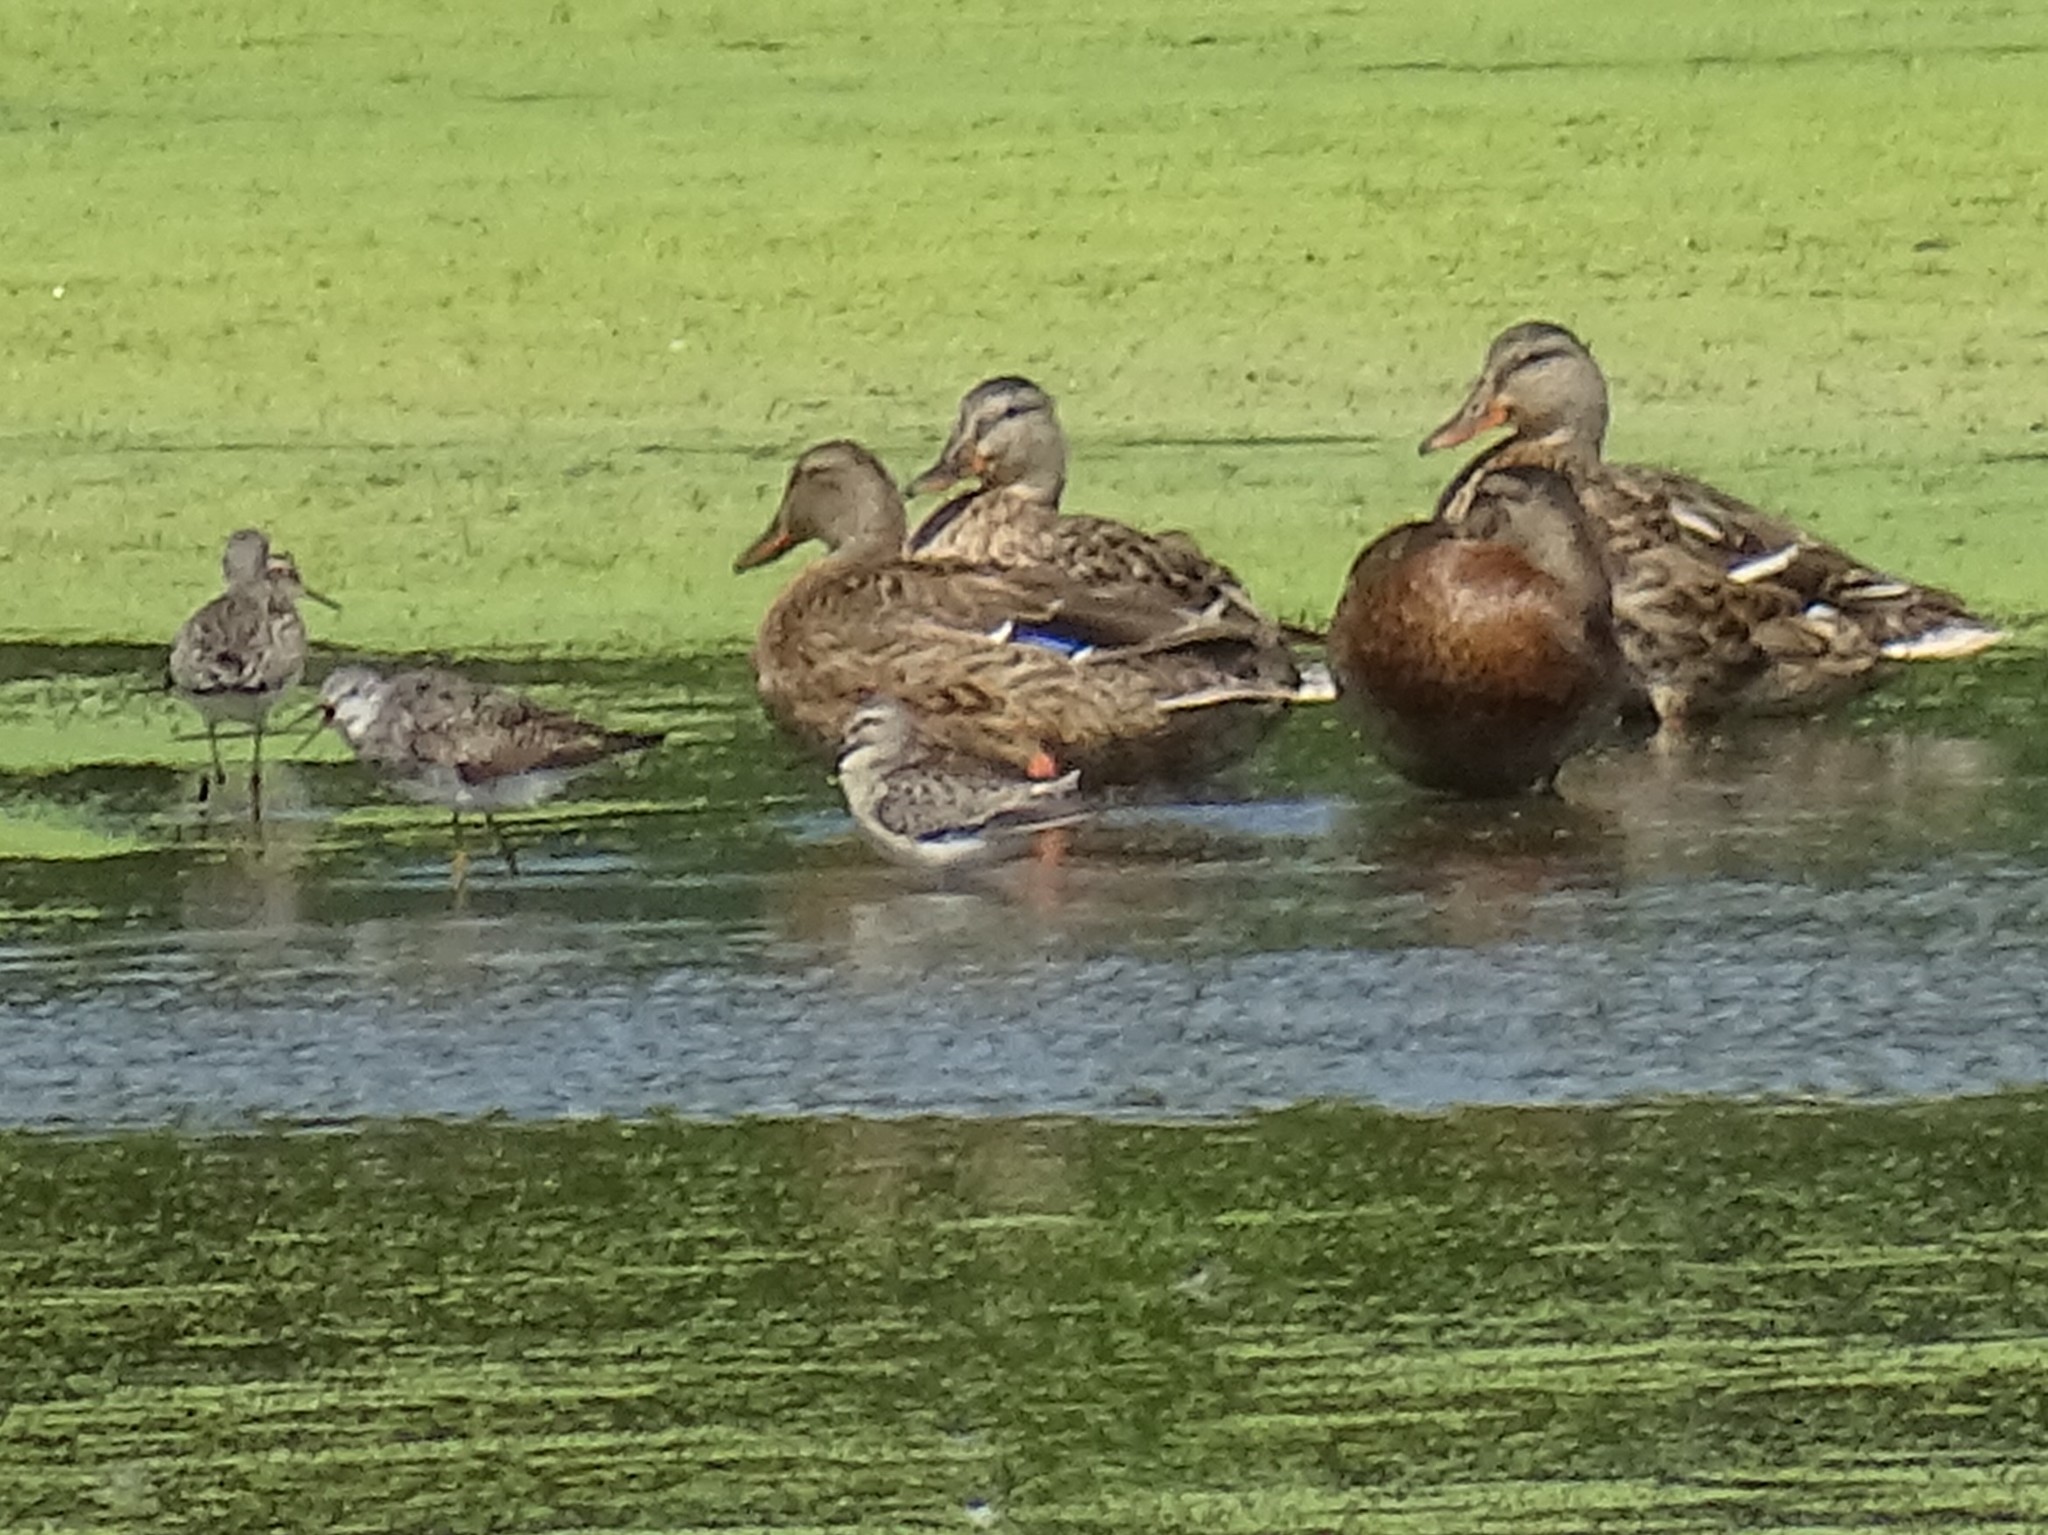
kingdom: Animalia
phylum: Chordata
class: Aves
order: Charadriiformes
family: Scolopacidae
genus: Calidris
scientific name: Calidris himantopus
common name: Stilt sandpiper
